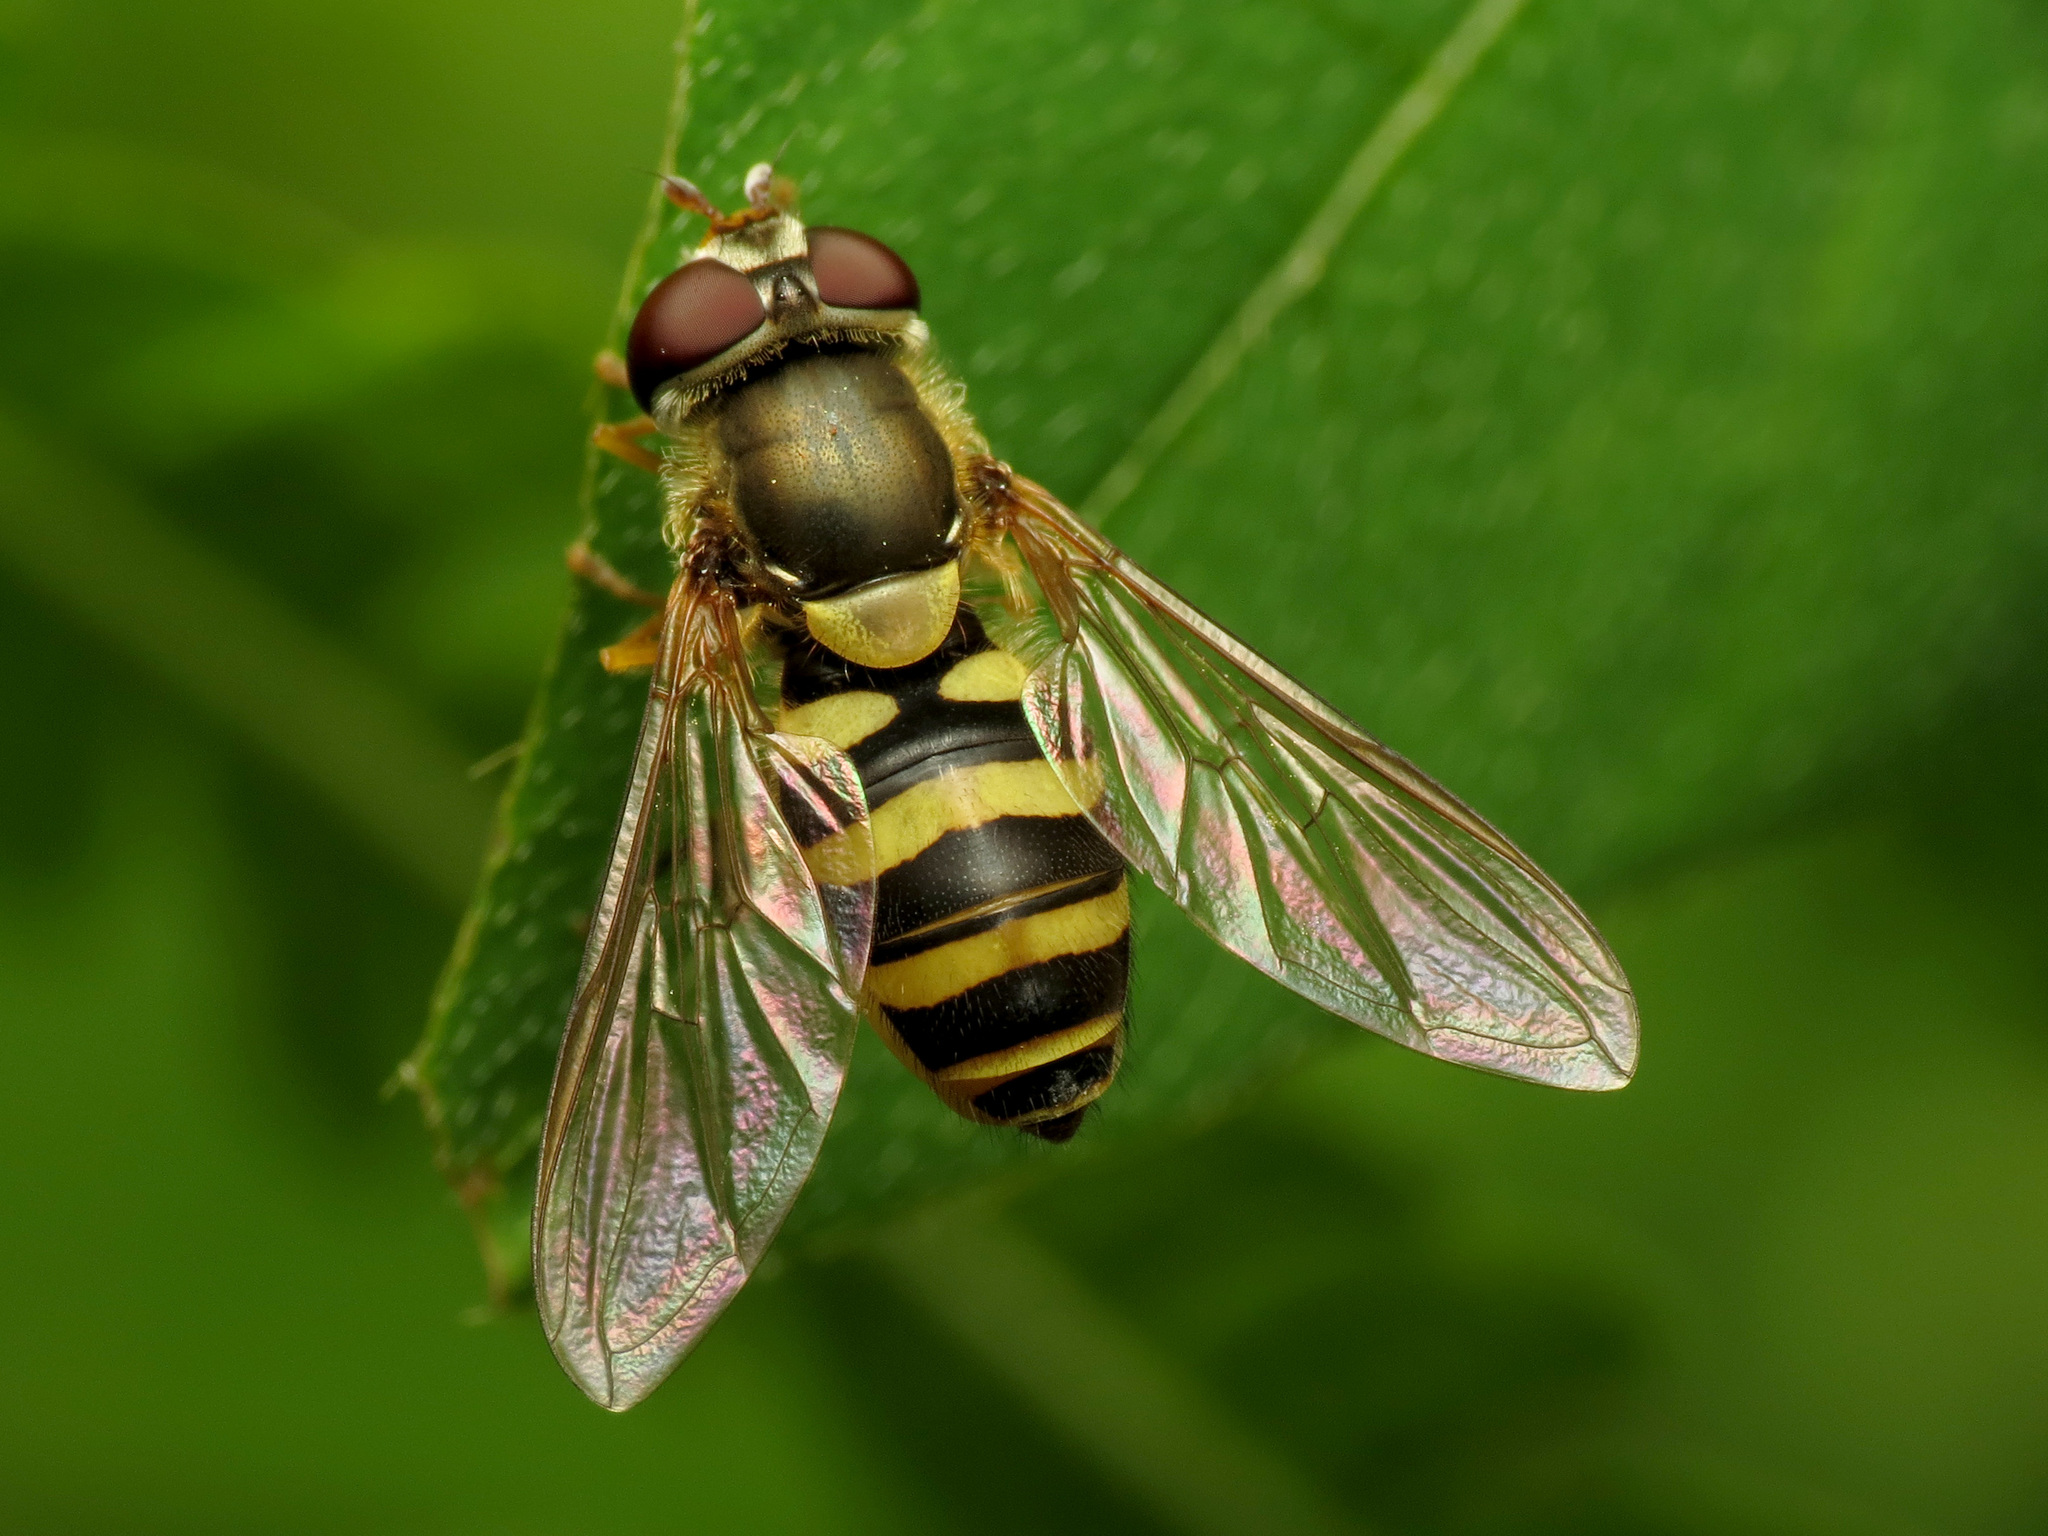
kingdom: Animalia
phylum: Arthropoda
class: Insecta
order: Diptera
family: Syrphidae
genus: Syrphus
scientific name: Syrphus rectus
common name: Yellow-legged flower fly
